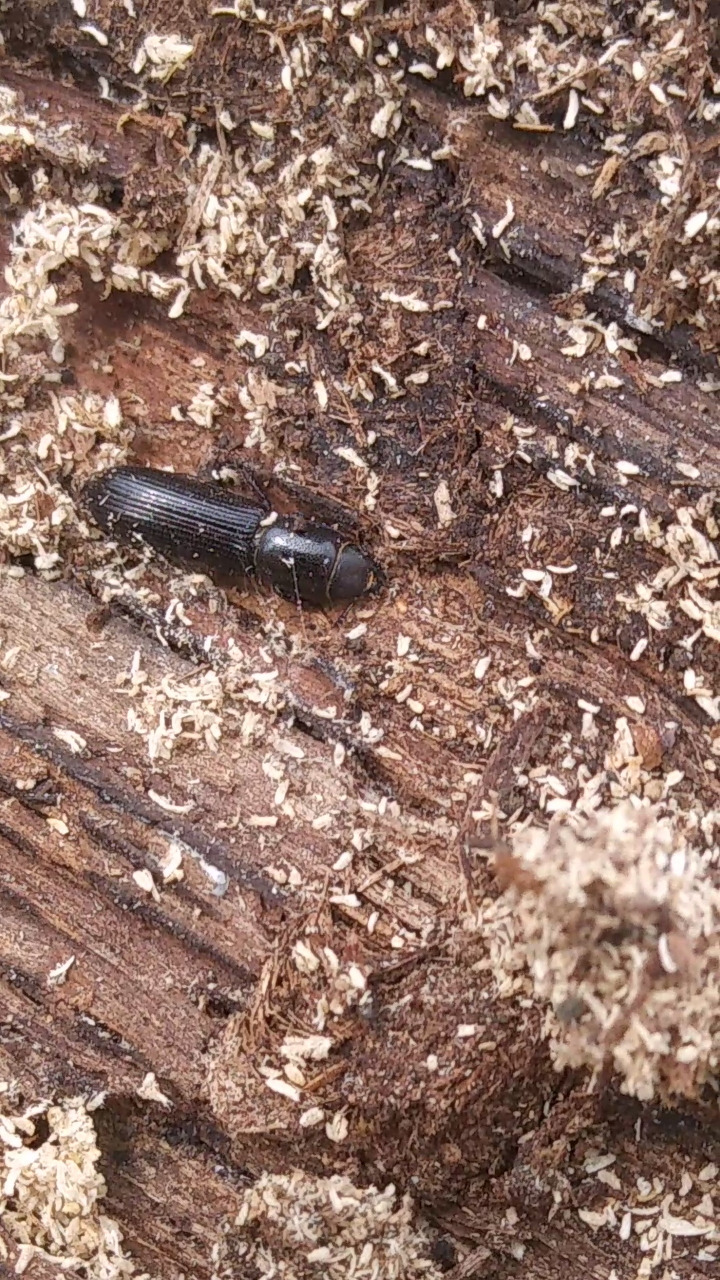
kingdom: Animalia
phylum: Arthropoda
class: Insecta
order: Coleoptera
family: Trogossitidae
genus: Airora
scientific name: Airora cylindrica
